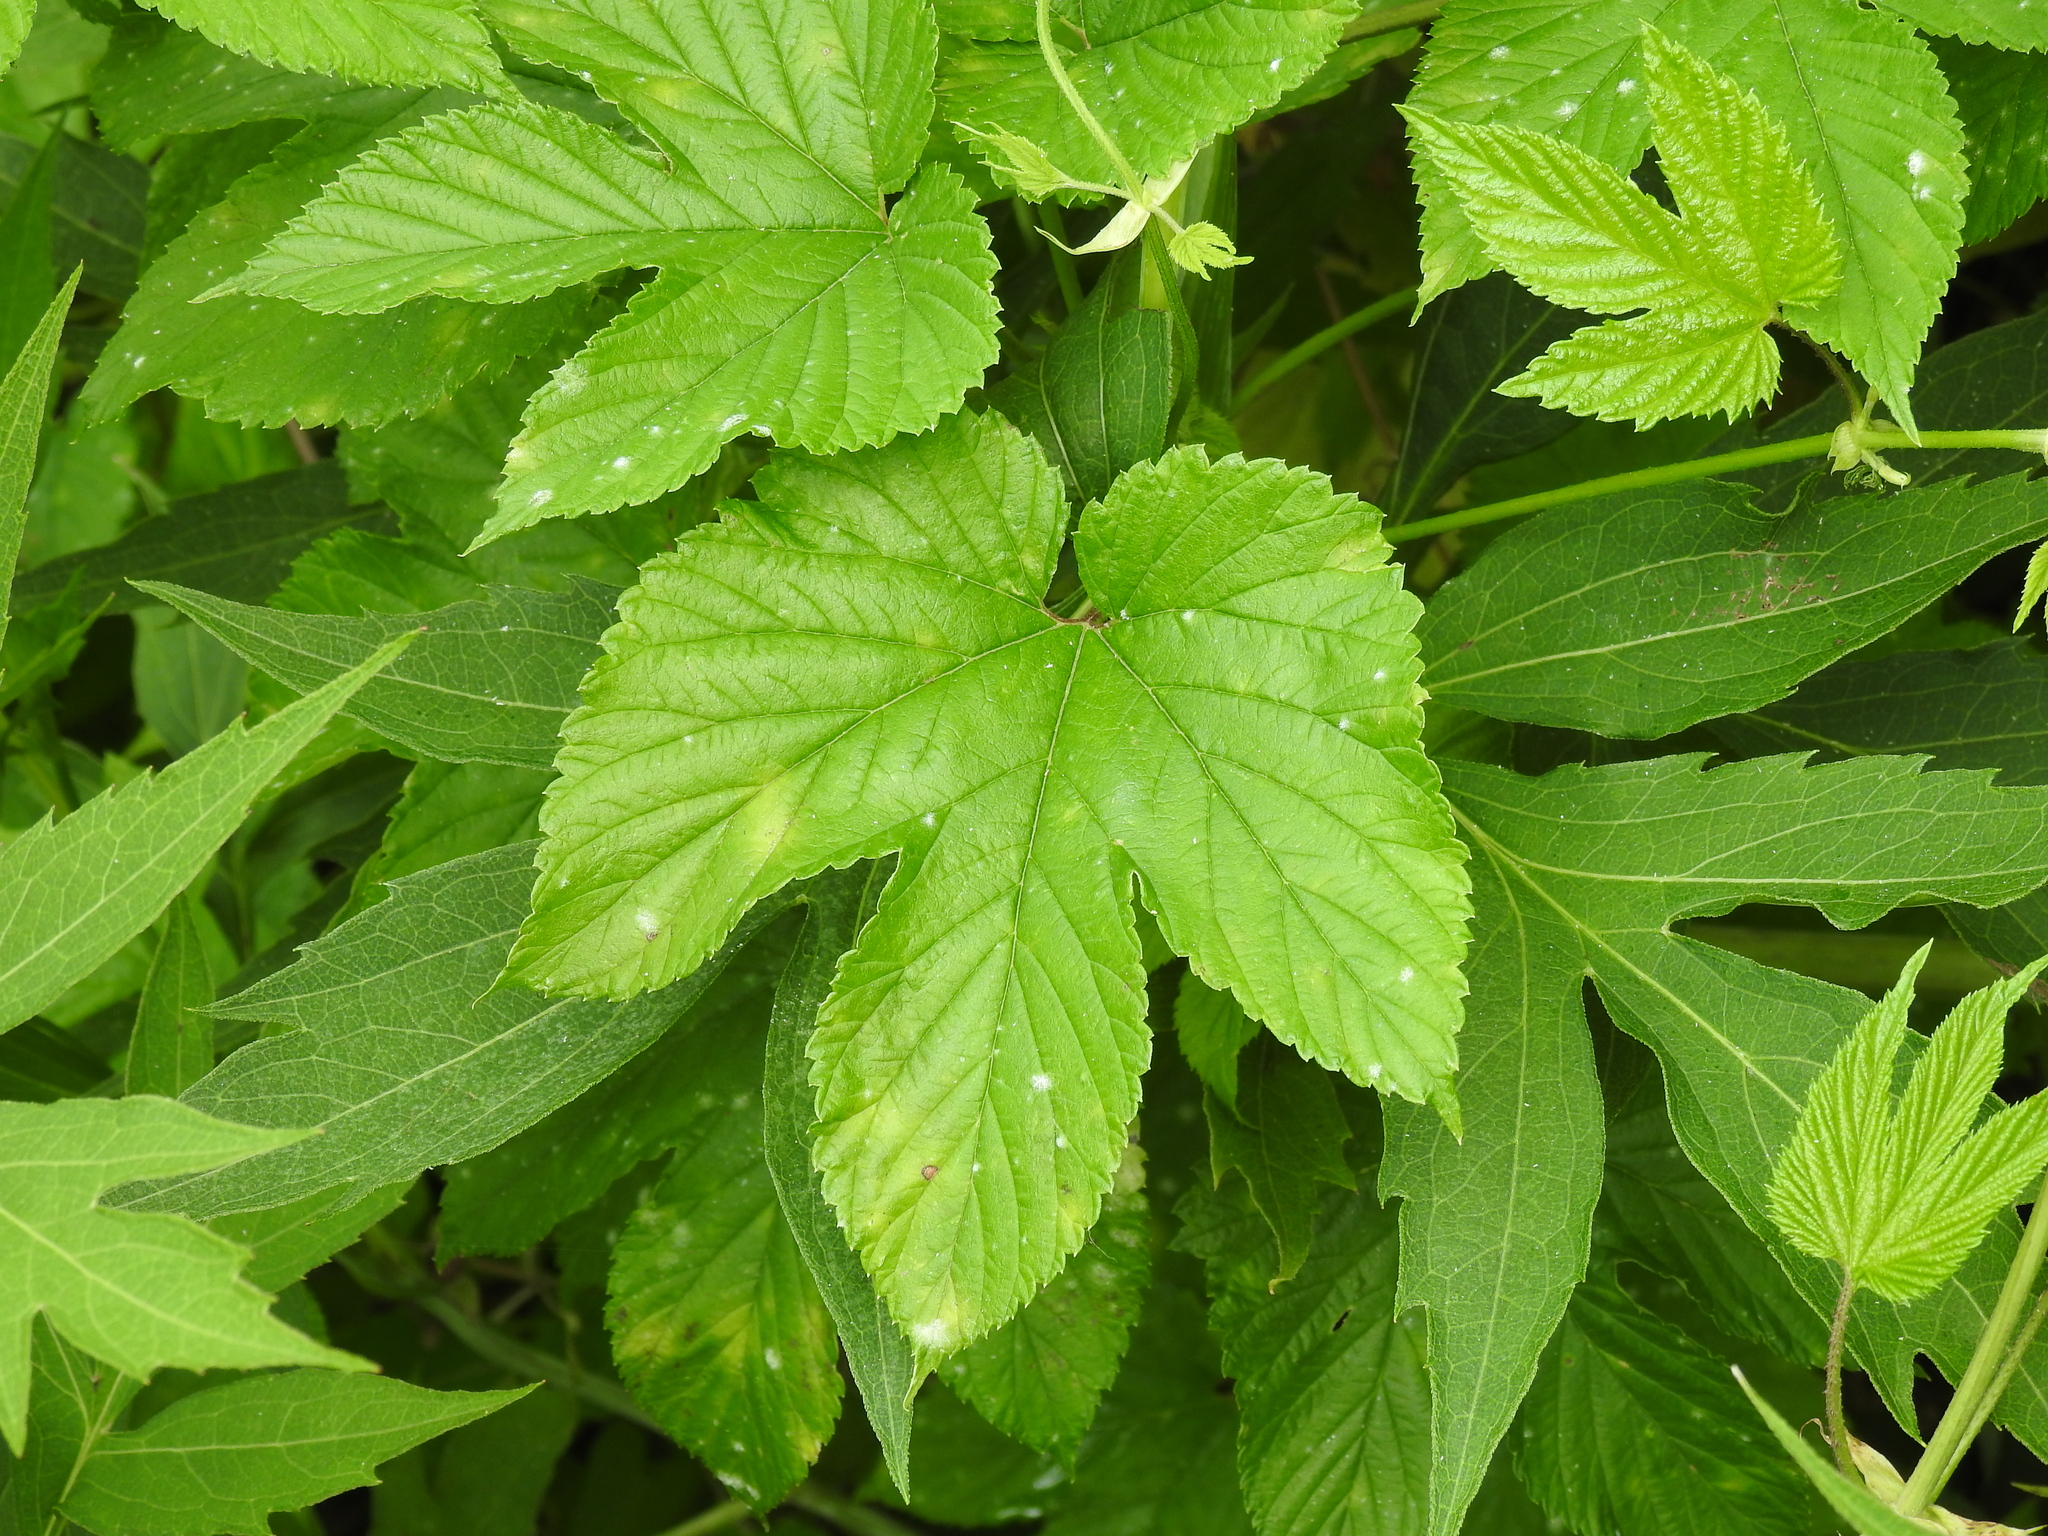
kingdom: Plantae
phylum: Tracheophyta
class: Magnoliopsida
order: Rosales
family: Cannabaceae
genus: Humulus
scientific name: Humulus lupulus
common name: Hop
